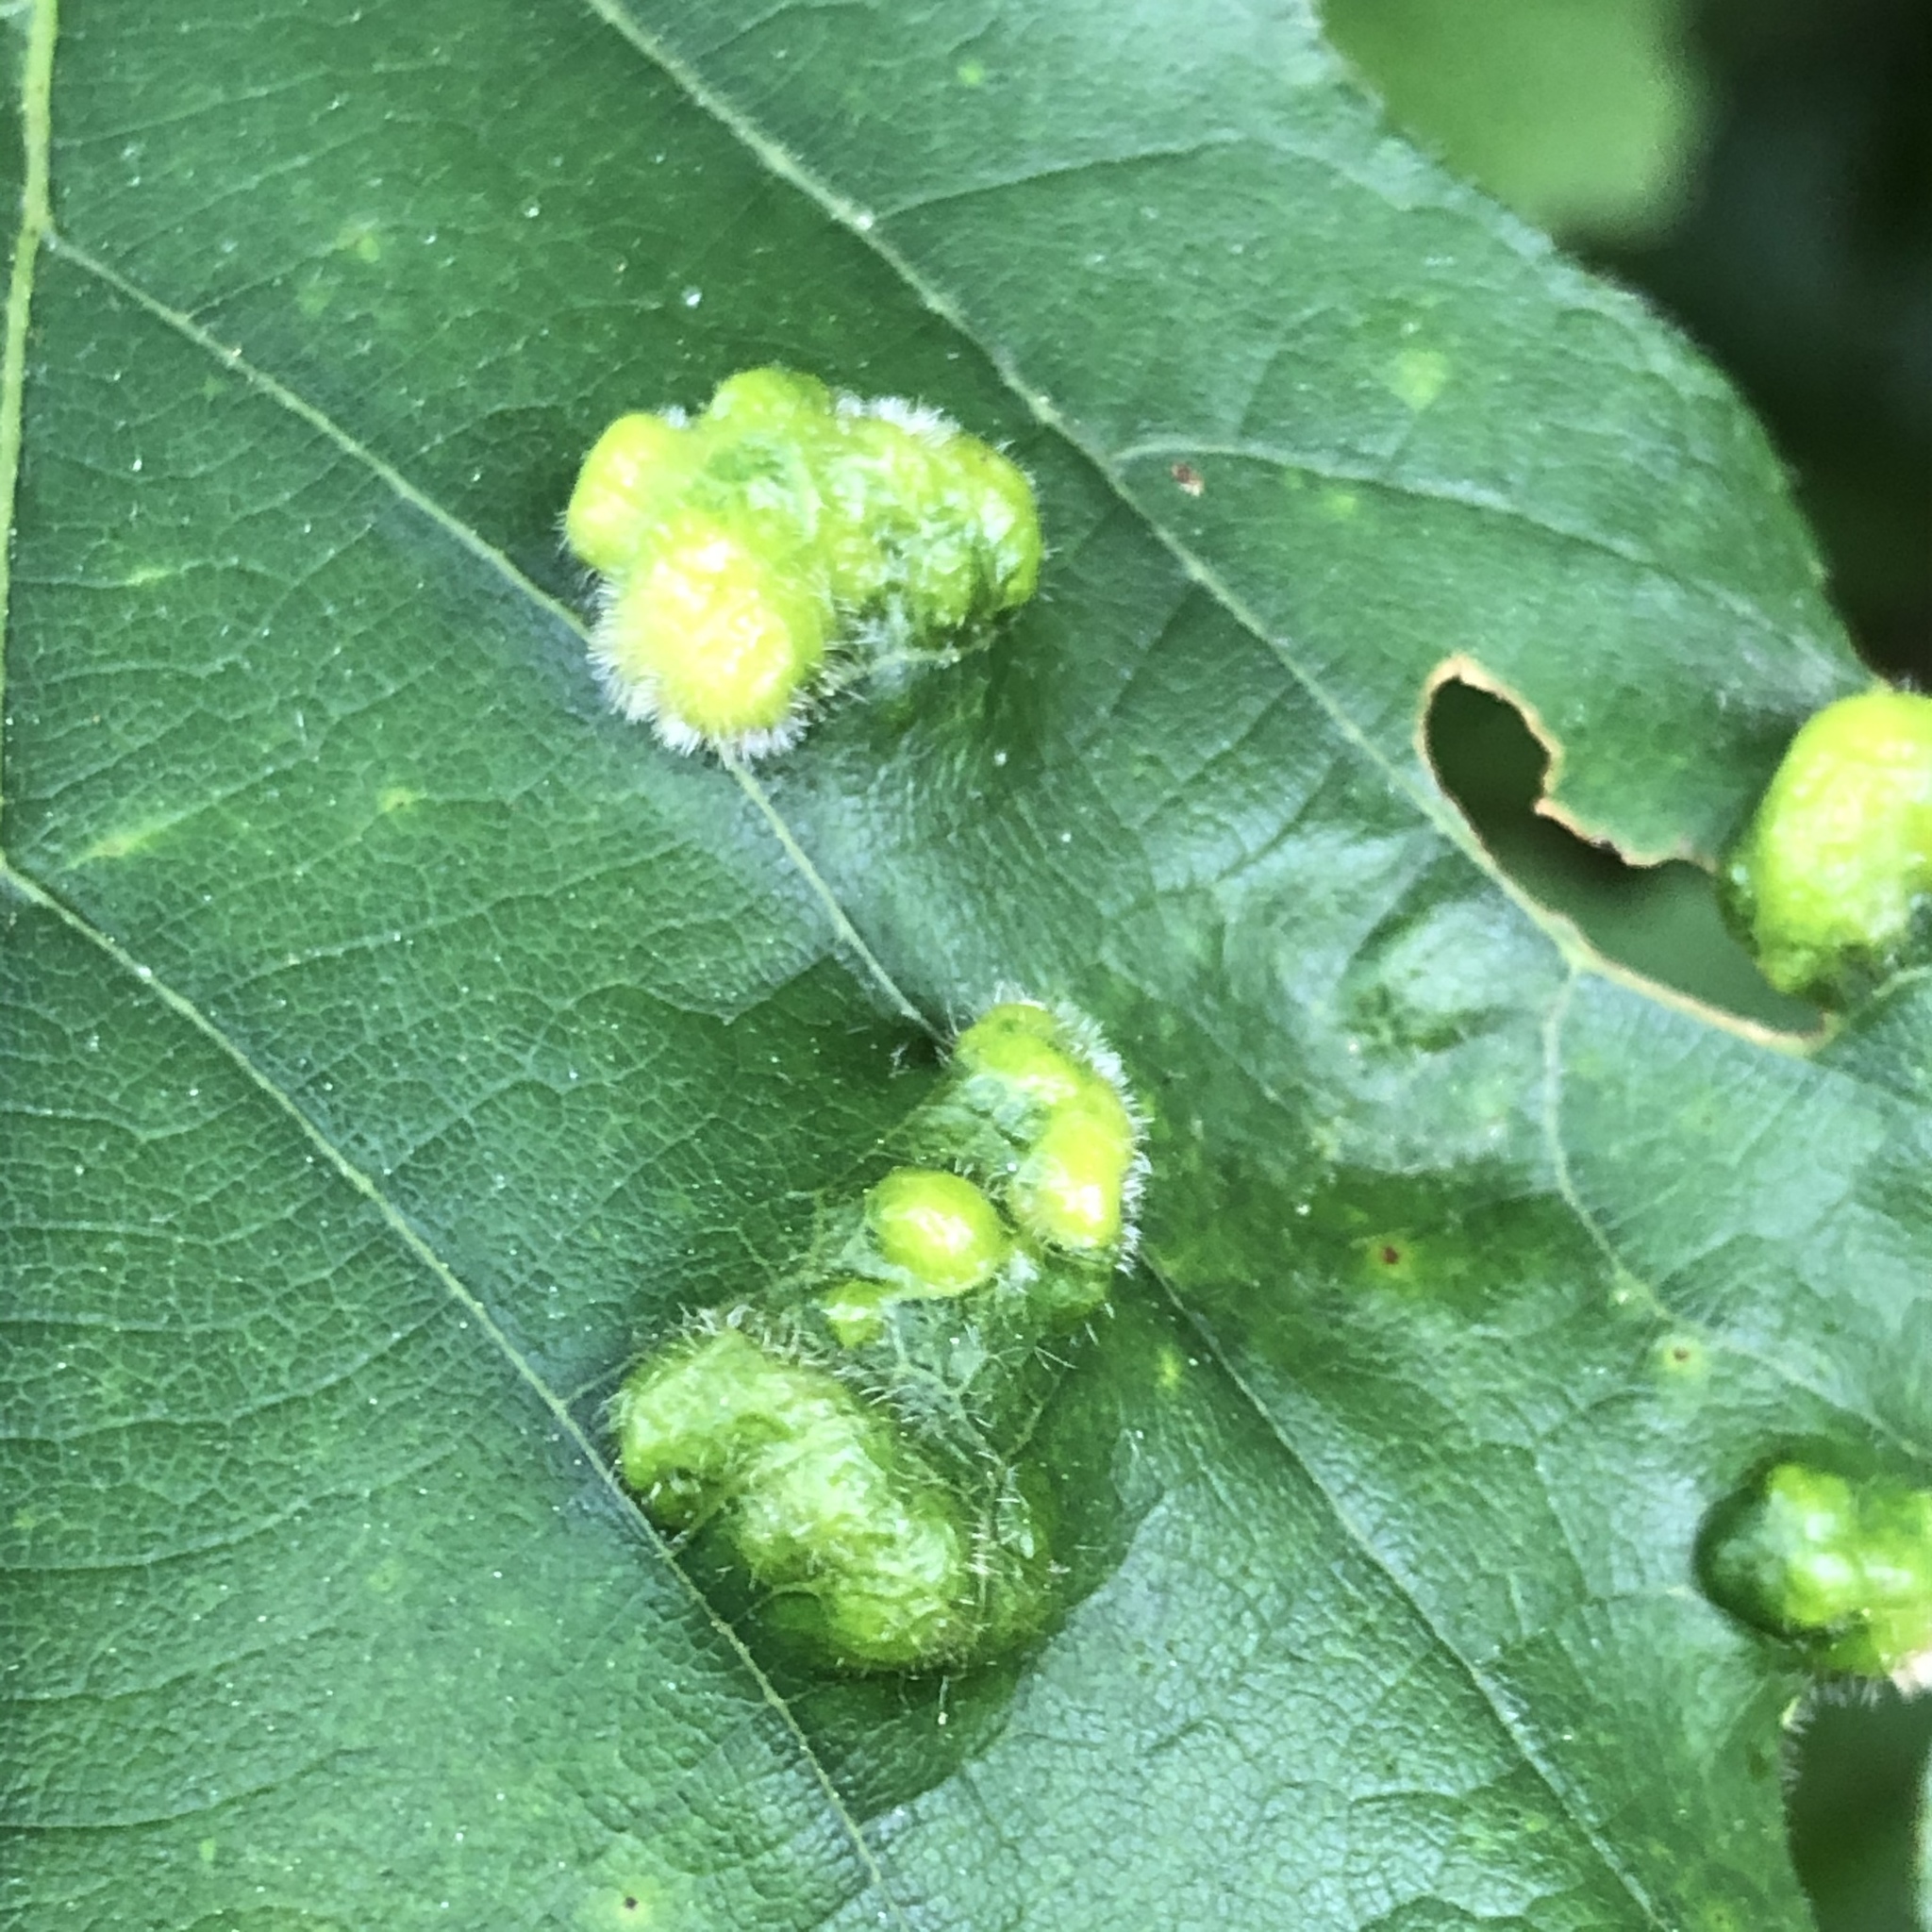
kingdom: Animalia
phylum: Arthropoda
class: Arachnida
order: Trombidiformes
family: Eriophyidae
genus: Aceria
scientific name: Aceria quercina
